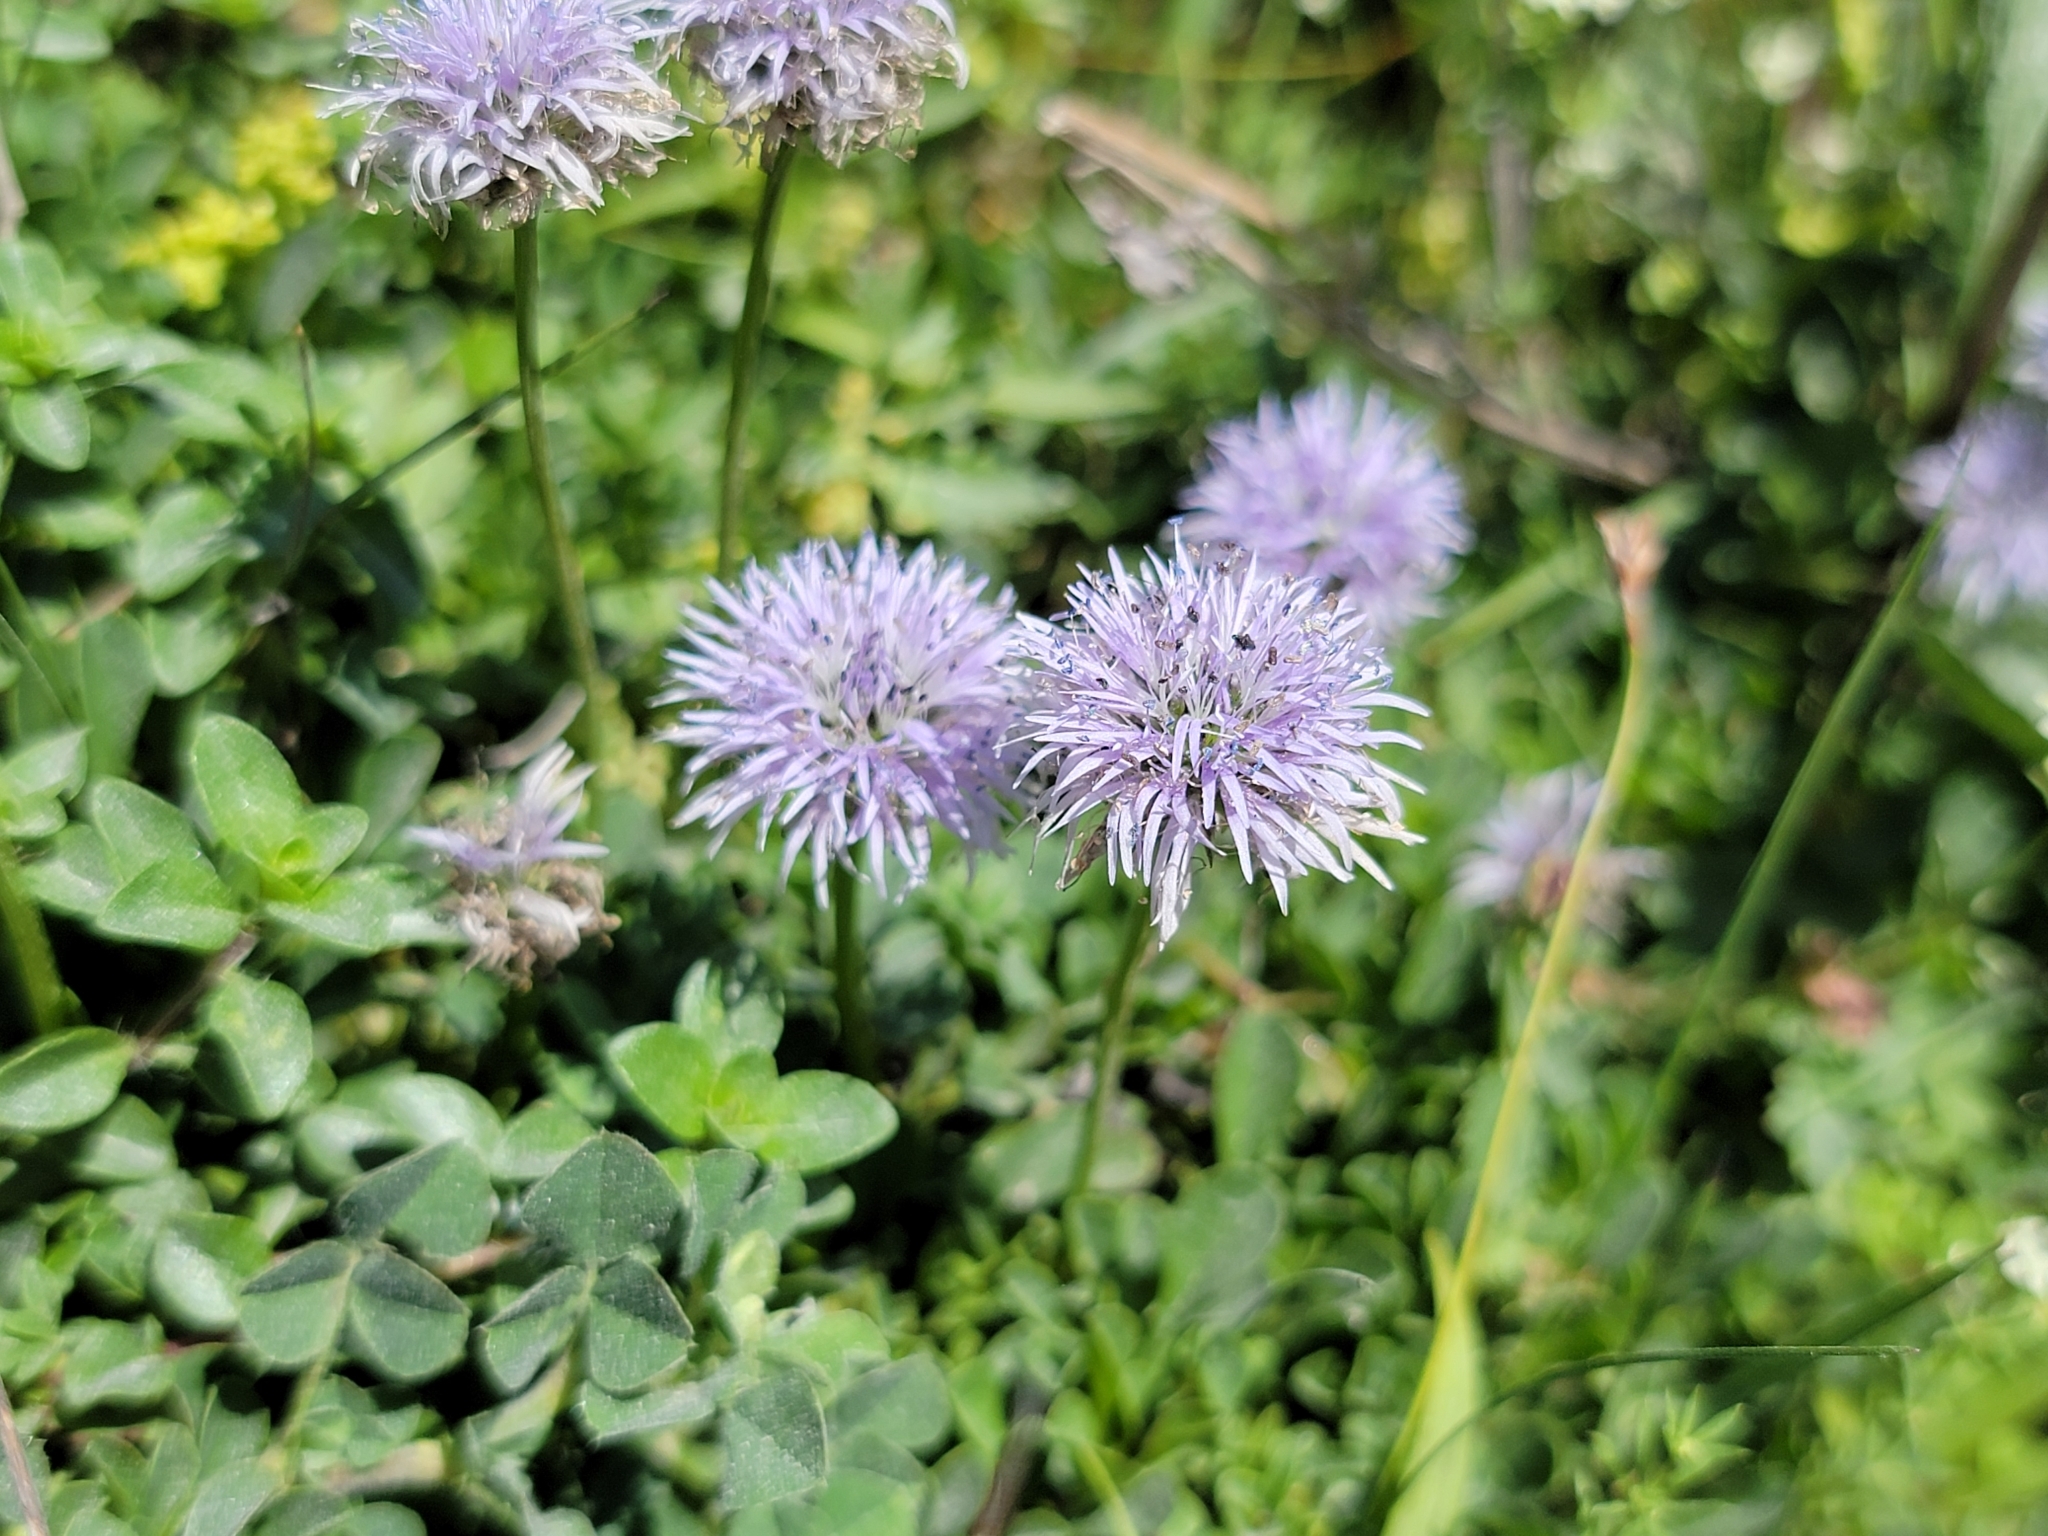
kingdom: Plantae
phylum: Tracheophyta
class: Magnoliopsida
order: Lamiales
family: Plantaginaceae
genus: Globularia
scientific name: Globularia cordifolia
